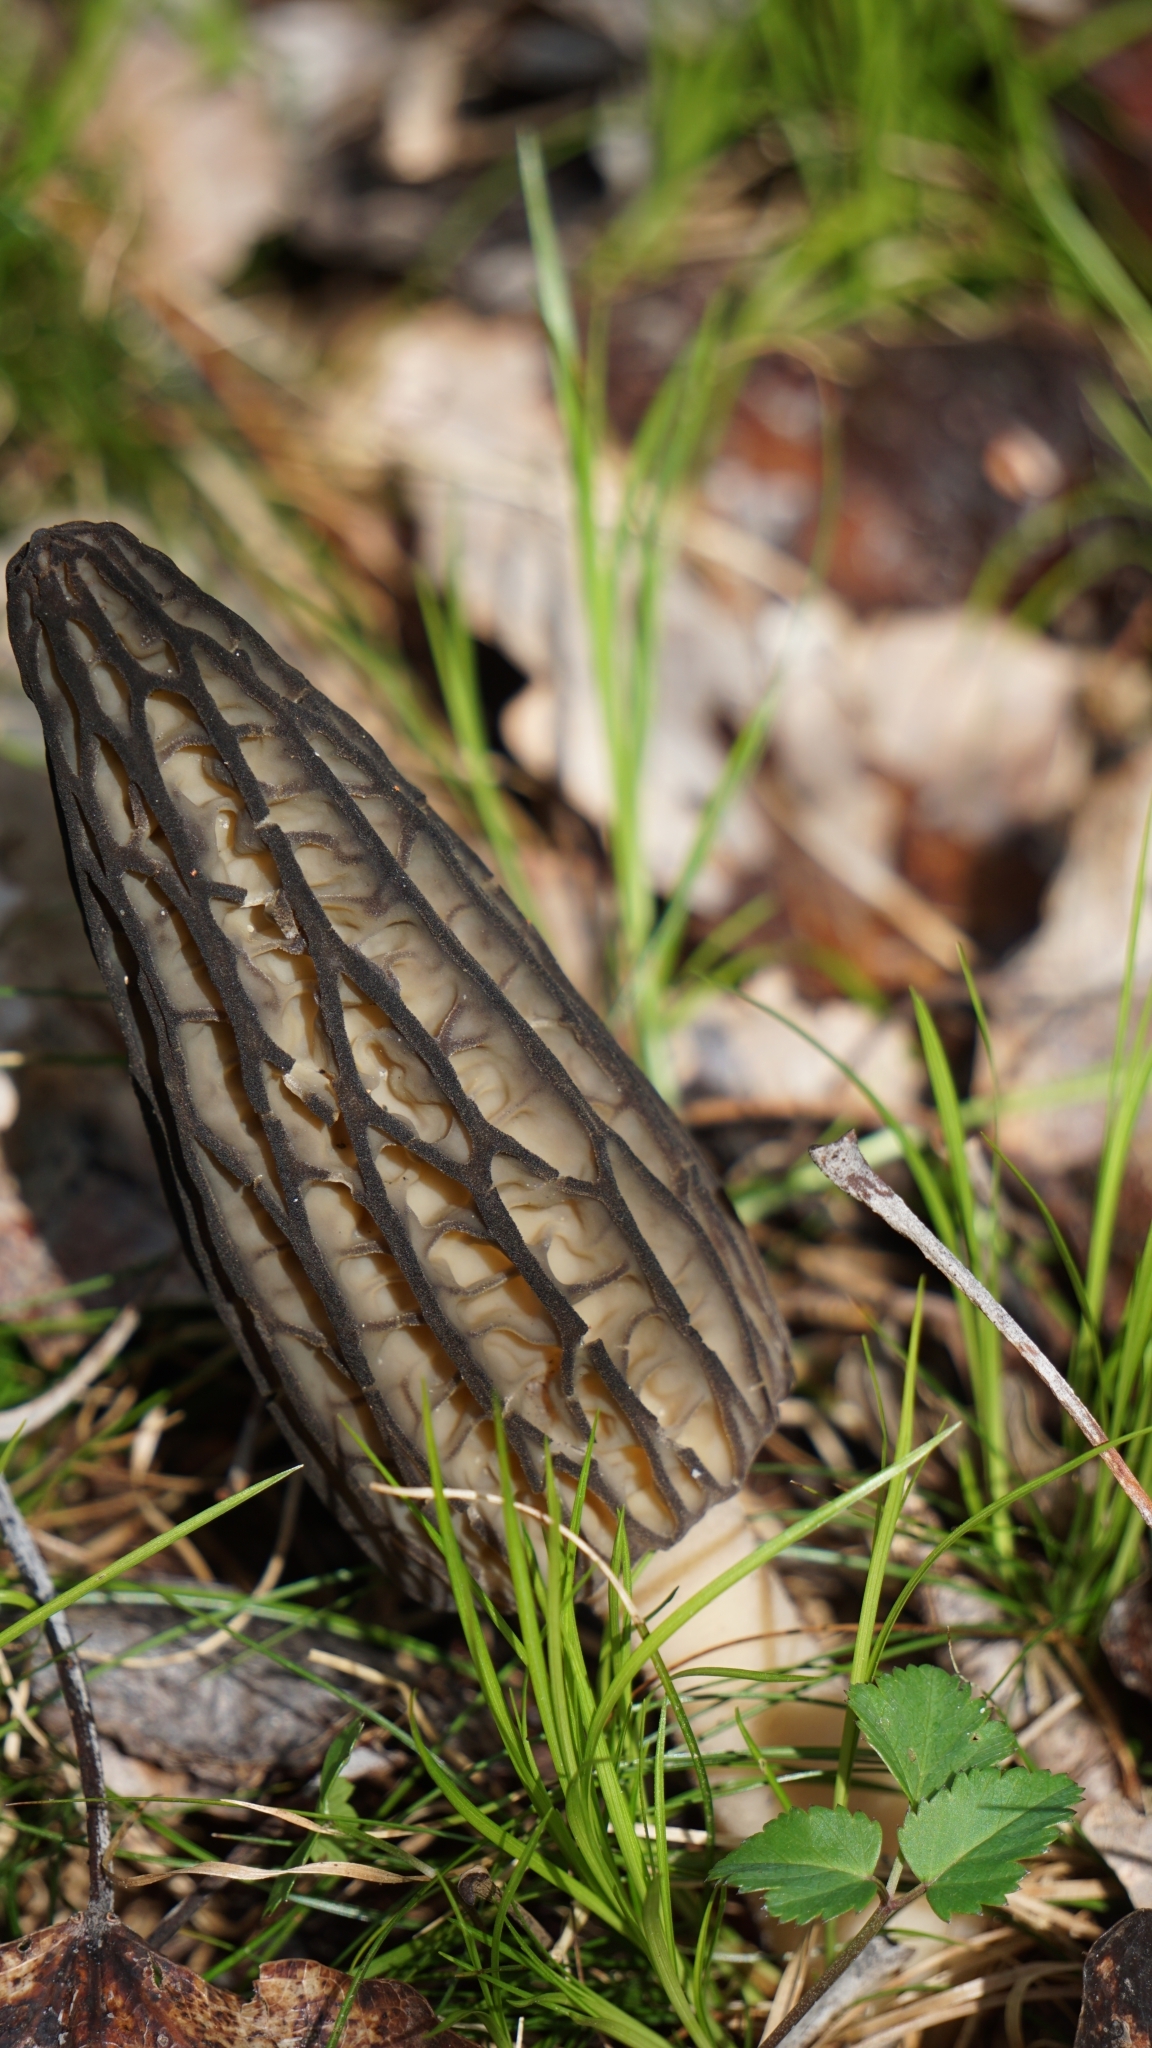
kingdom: Fungi
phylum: Ascomycota
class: Pezizomycetes
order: Pezizales
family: Morchellaceae
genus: Morchella
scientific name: Morchella
